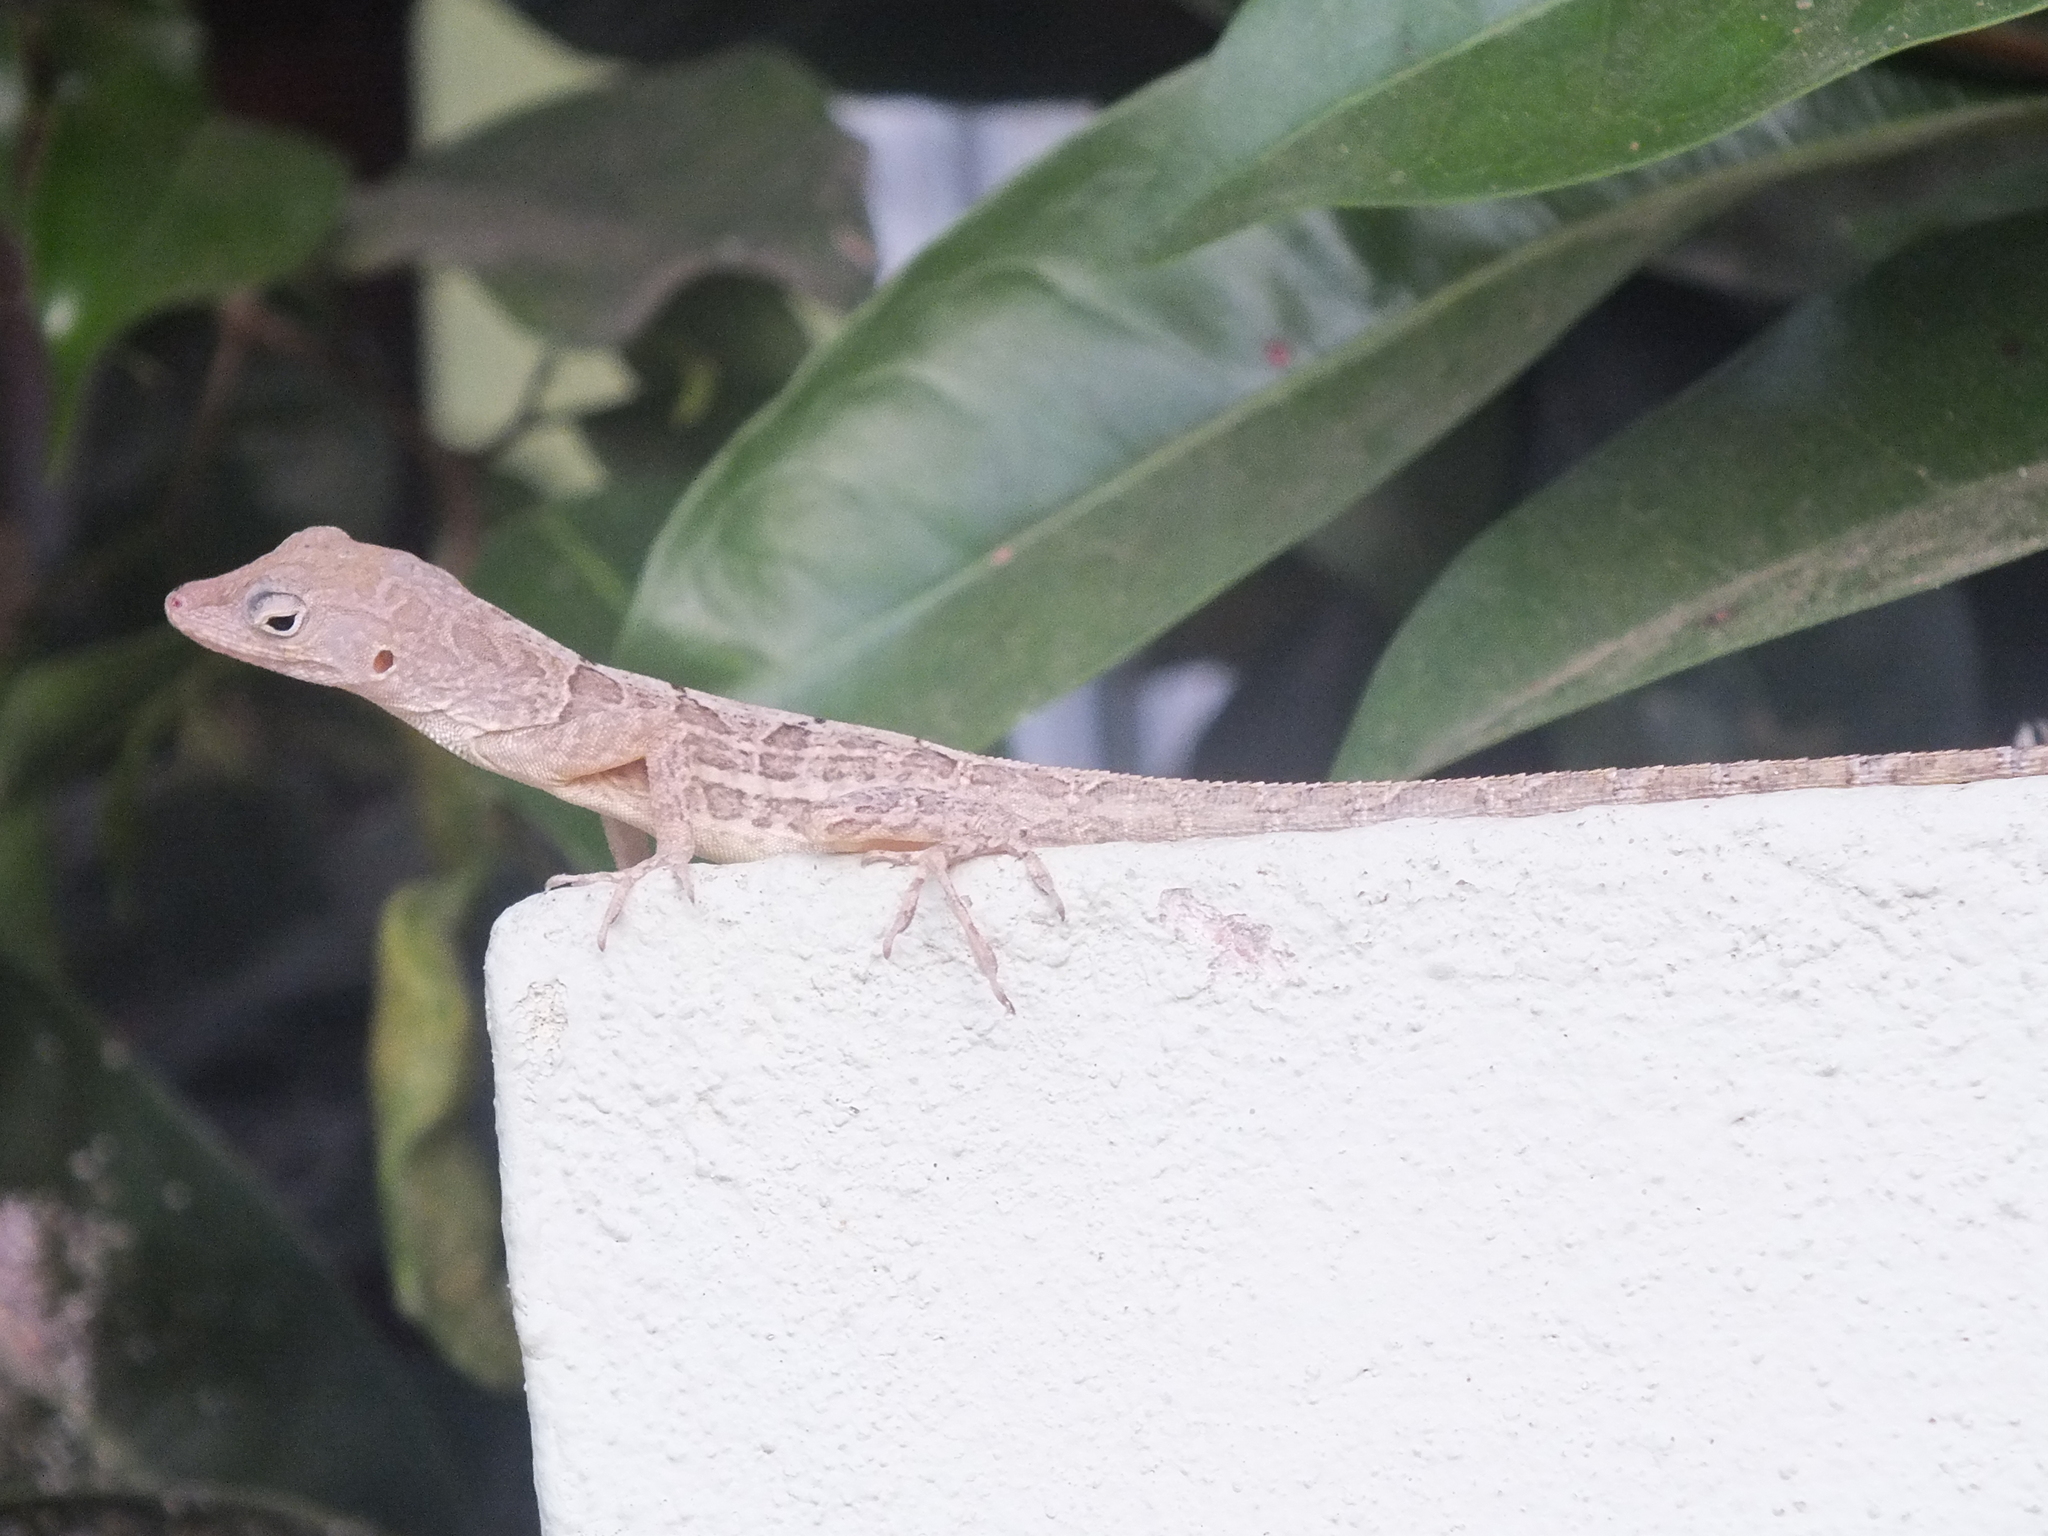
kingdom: Animalia
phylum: Chordata
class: Squamata
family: Dactyloidae
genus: Anolis
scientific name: Anolis lineatopus
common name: Stripefoot anole
